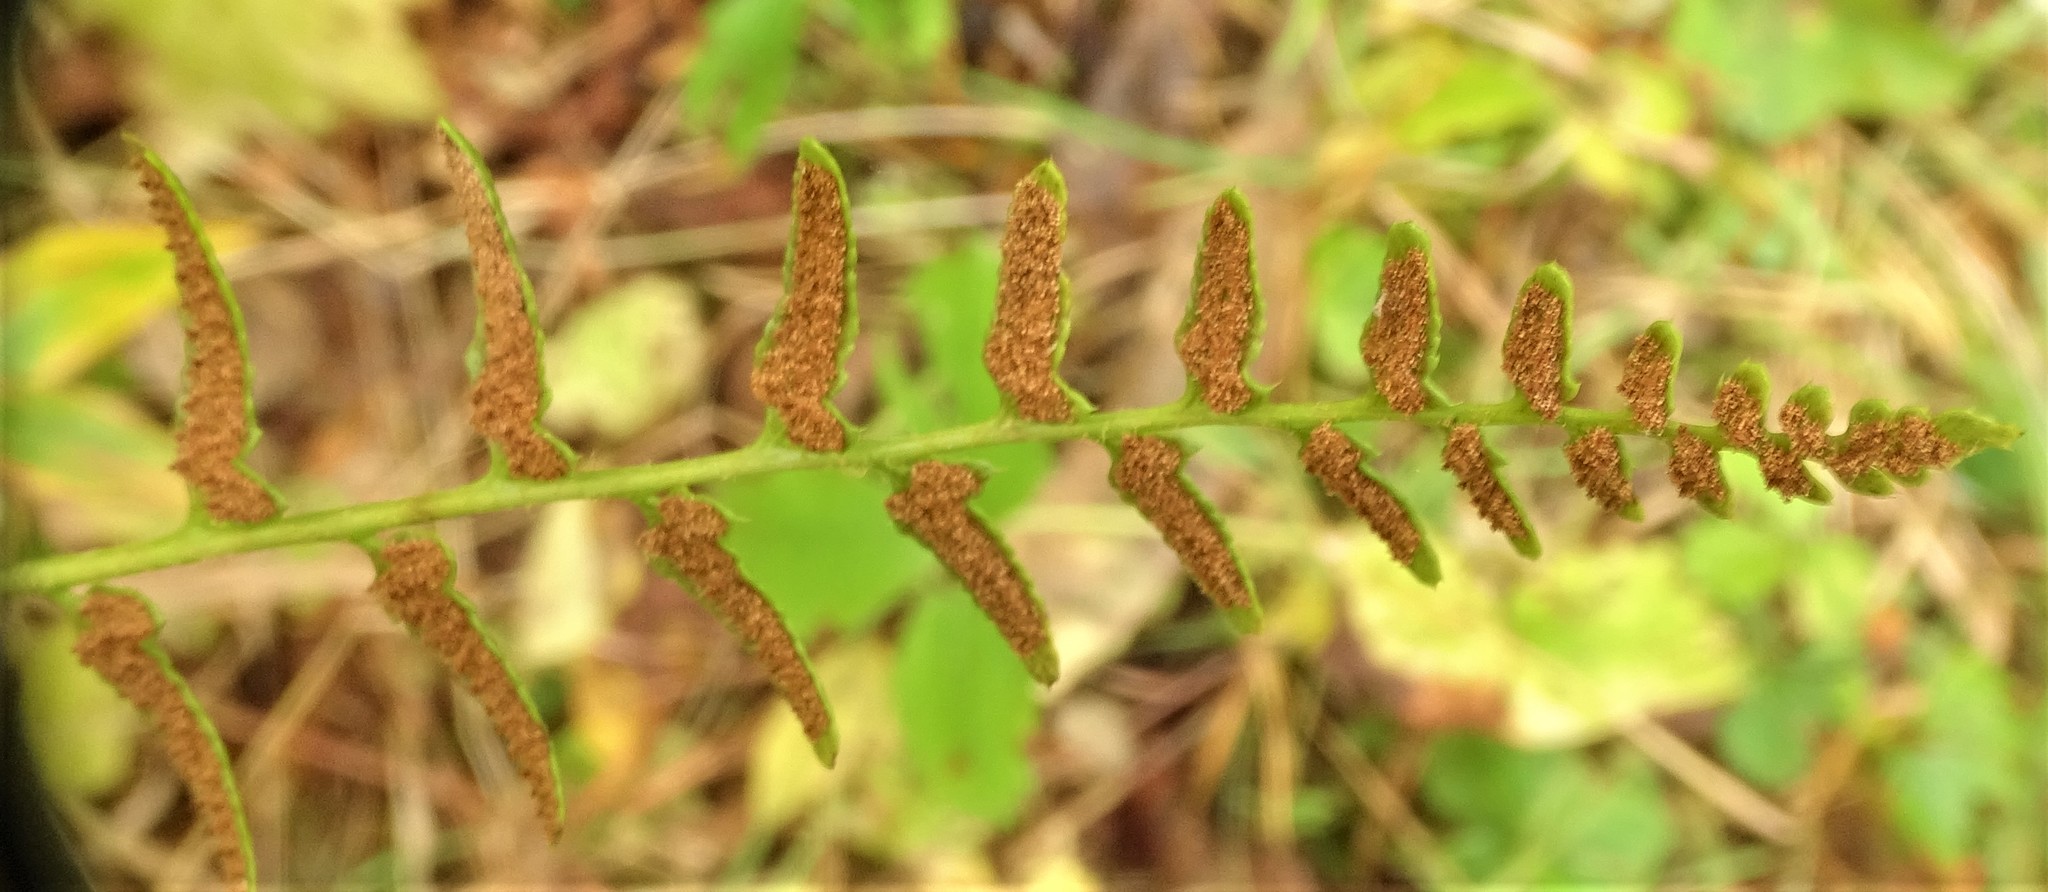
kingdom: Plantae
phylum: Tracheophyta
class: Polypodiopsida
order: Polypodiales
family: Dryopteridaceae
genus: Polystichum
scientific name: Polystichum acrostichoides
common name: Christmas fern
